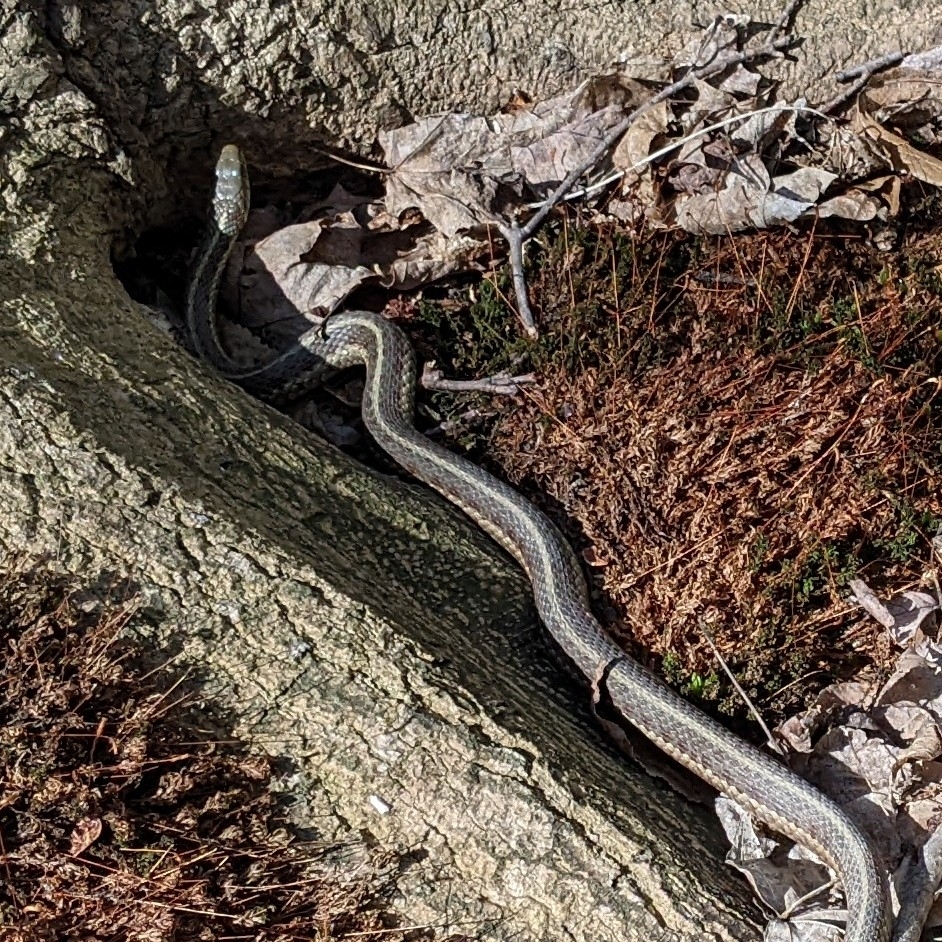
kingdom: Animalia
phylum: Chordata
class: Squamata
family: Colubridae
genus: Thamnophis
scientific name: Thamnophis sirtalis
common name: Common garter snake
